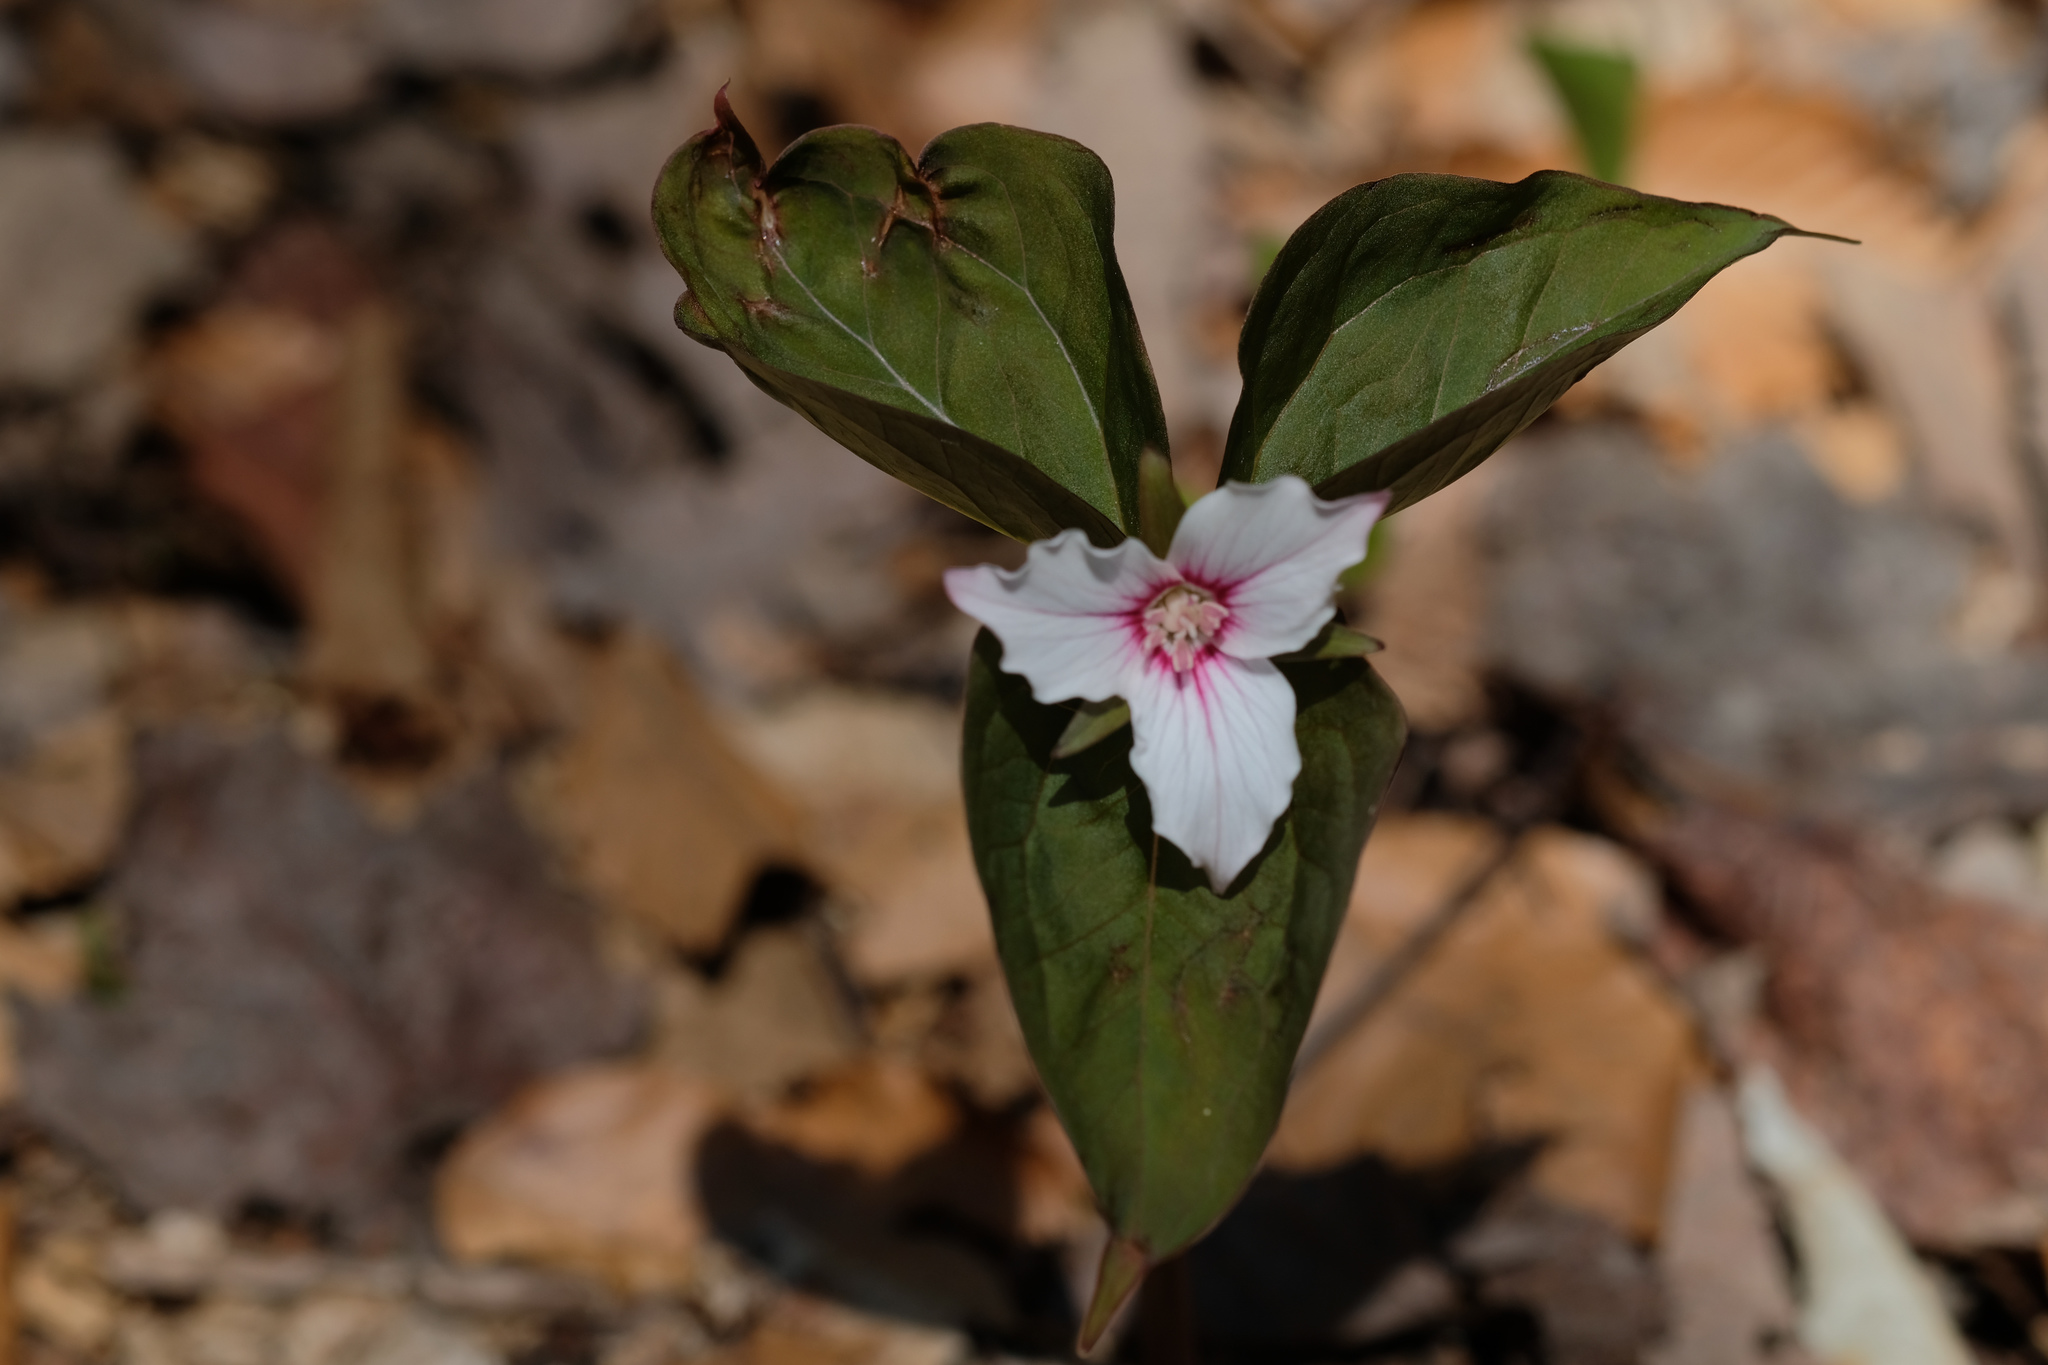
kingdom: Plantae
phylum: Tracheophyta
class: Liliopsida
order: Liliales
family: Melanthiaceae
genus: Trillium
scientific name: Trillium undulatum
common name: Paint trillium
